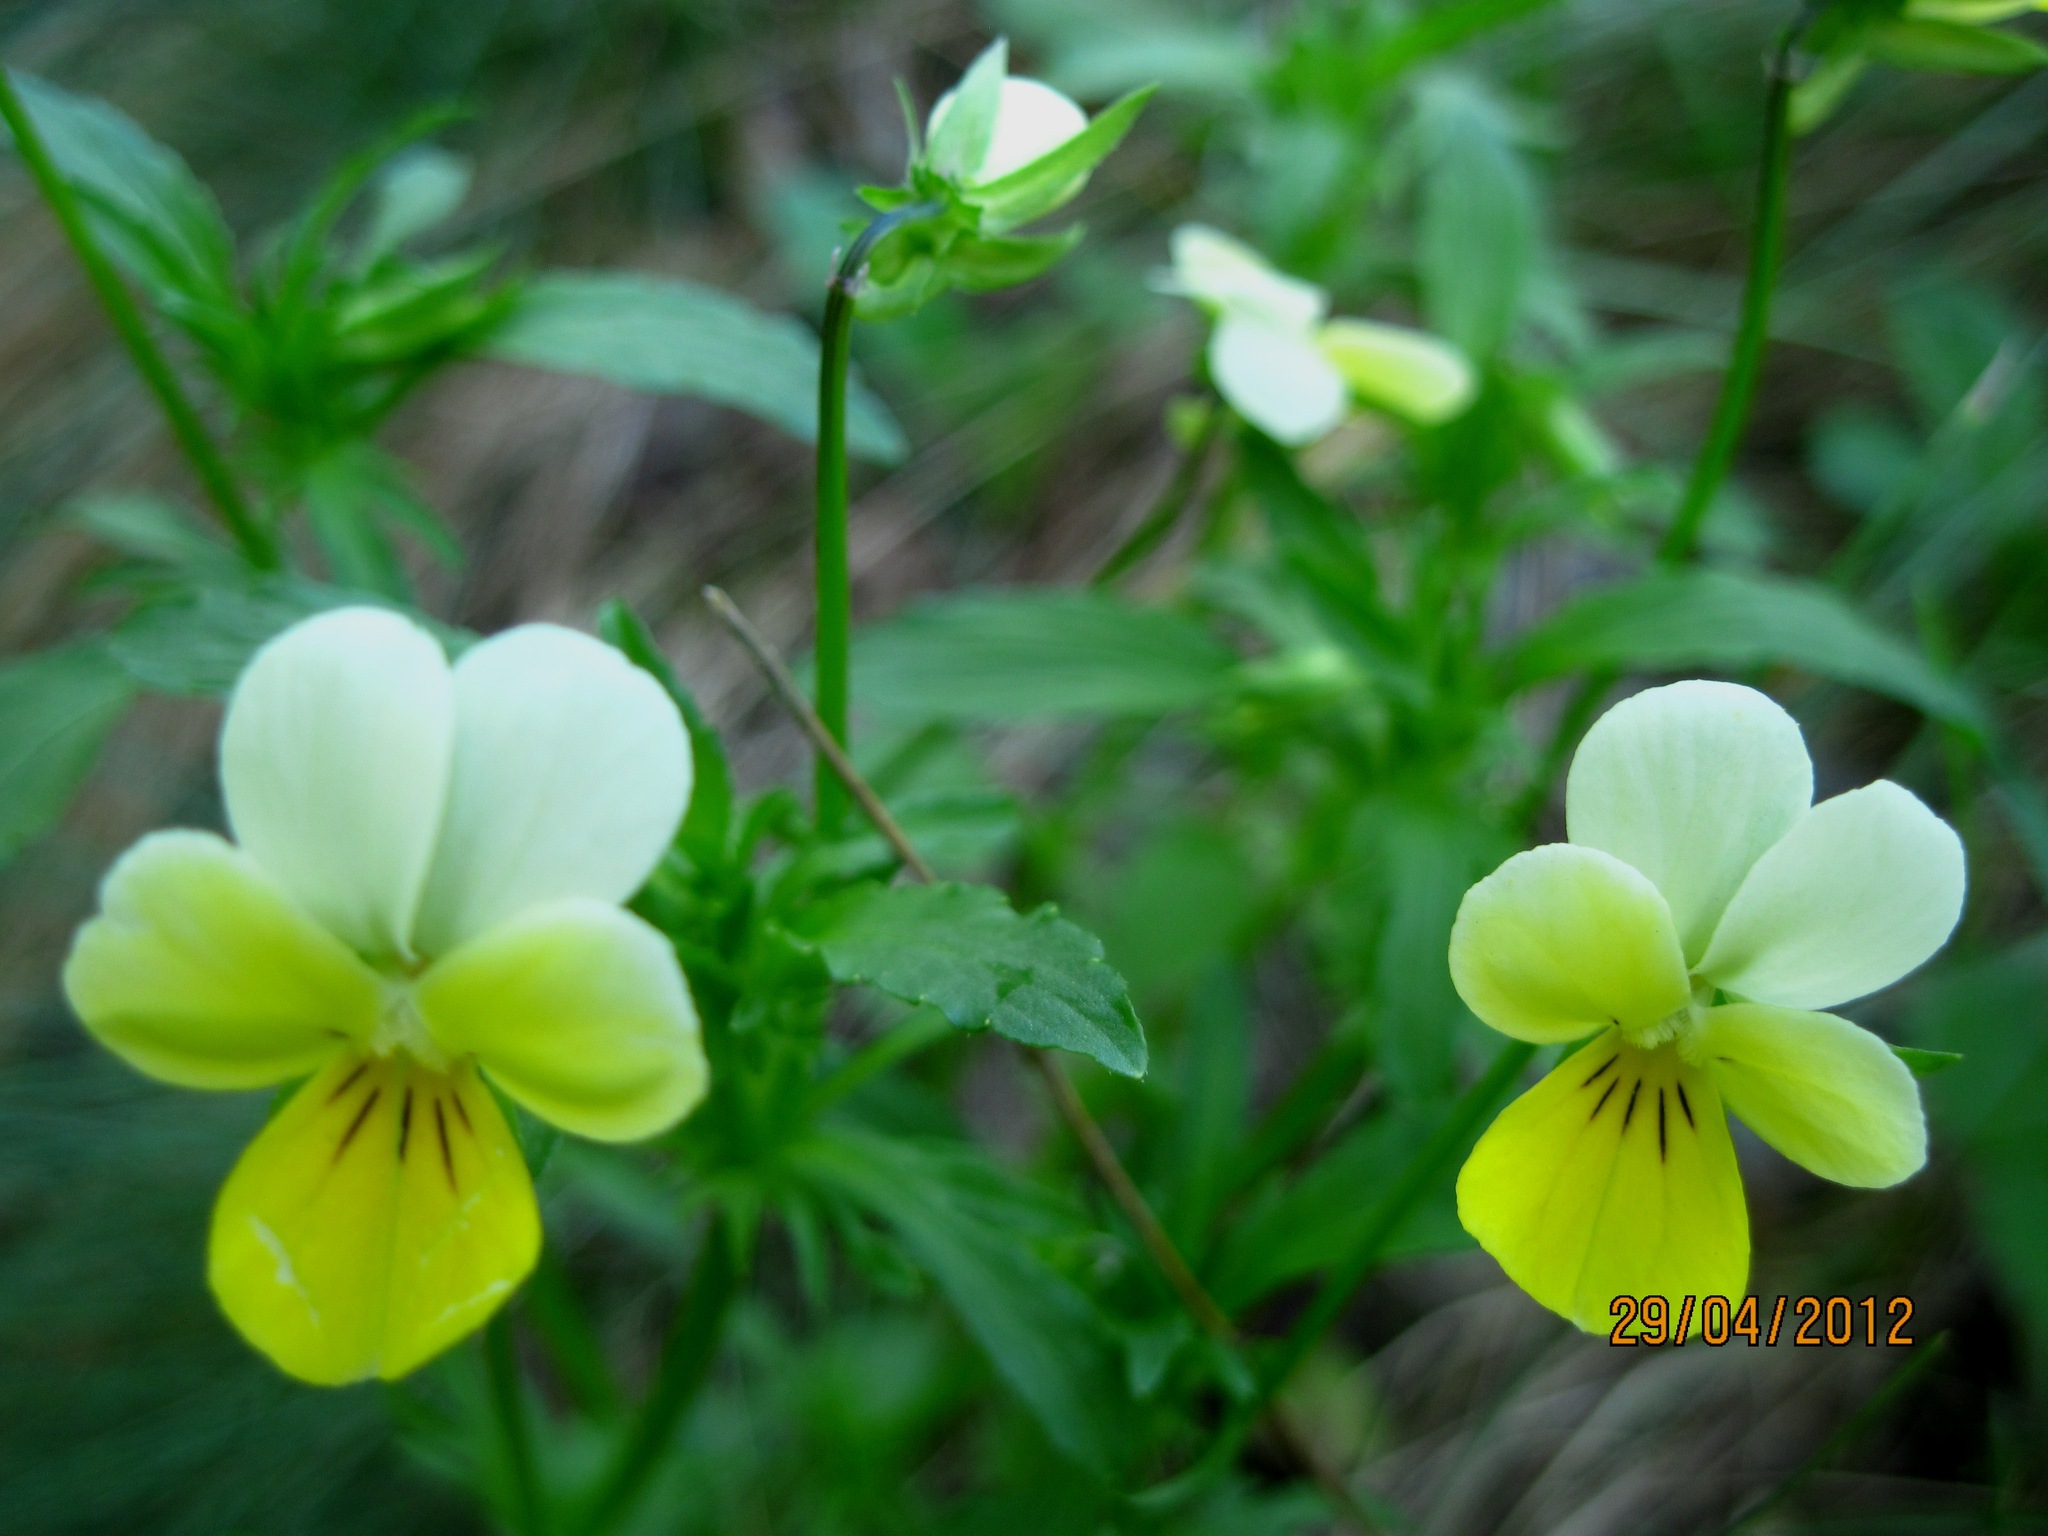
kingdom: Plantae
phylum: Tracheophyta
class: Magnoliopsida
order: Malpighiales
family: Violaceae
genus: Viola
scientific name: Viola tricolor
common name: Pansy
